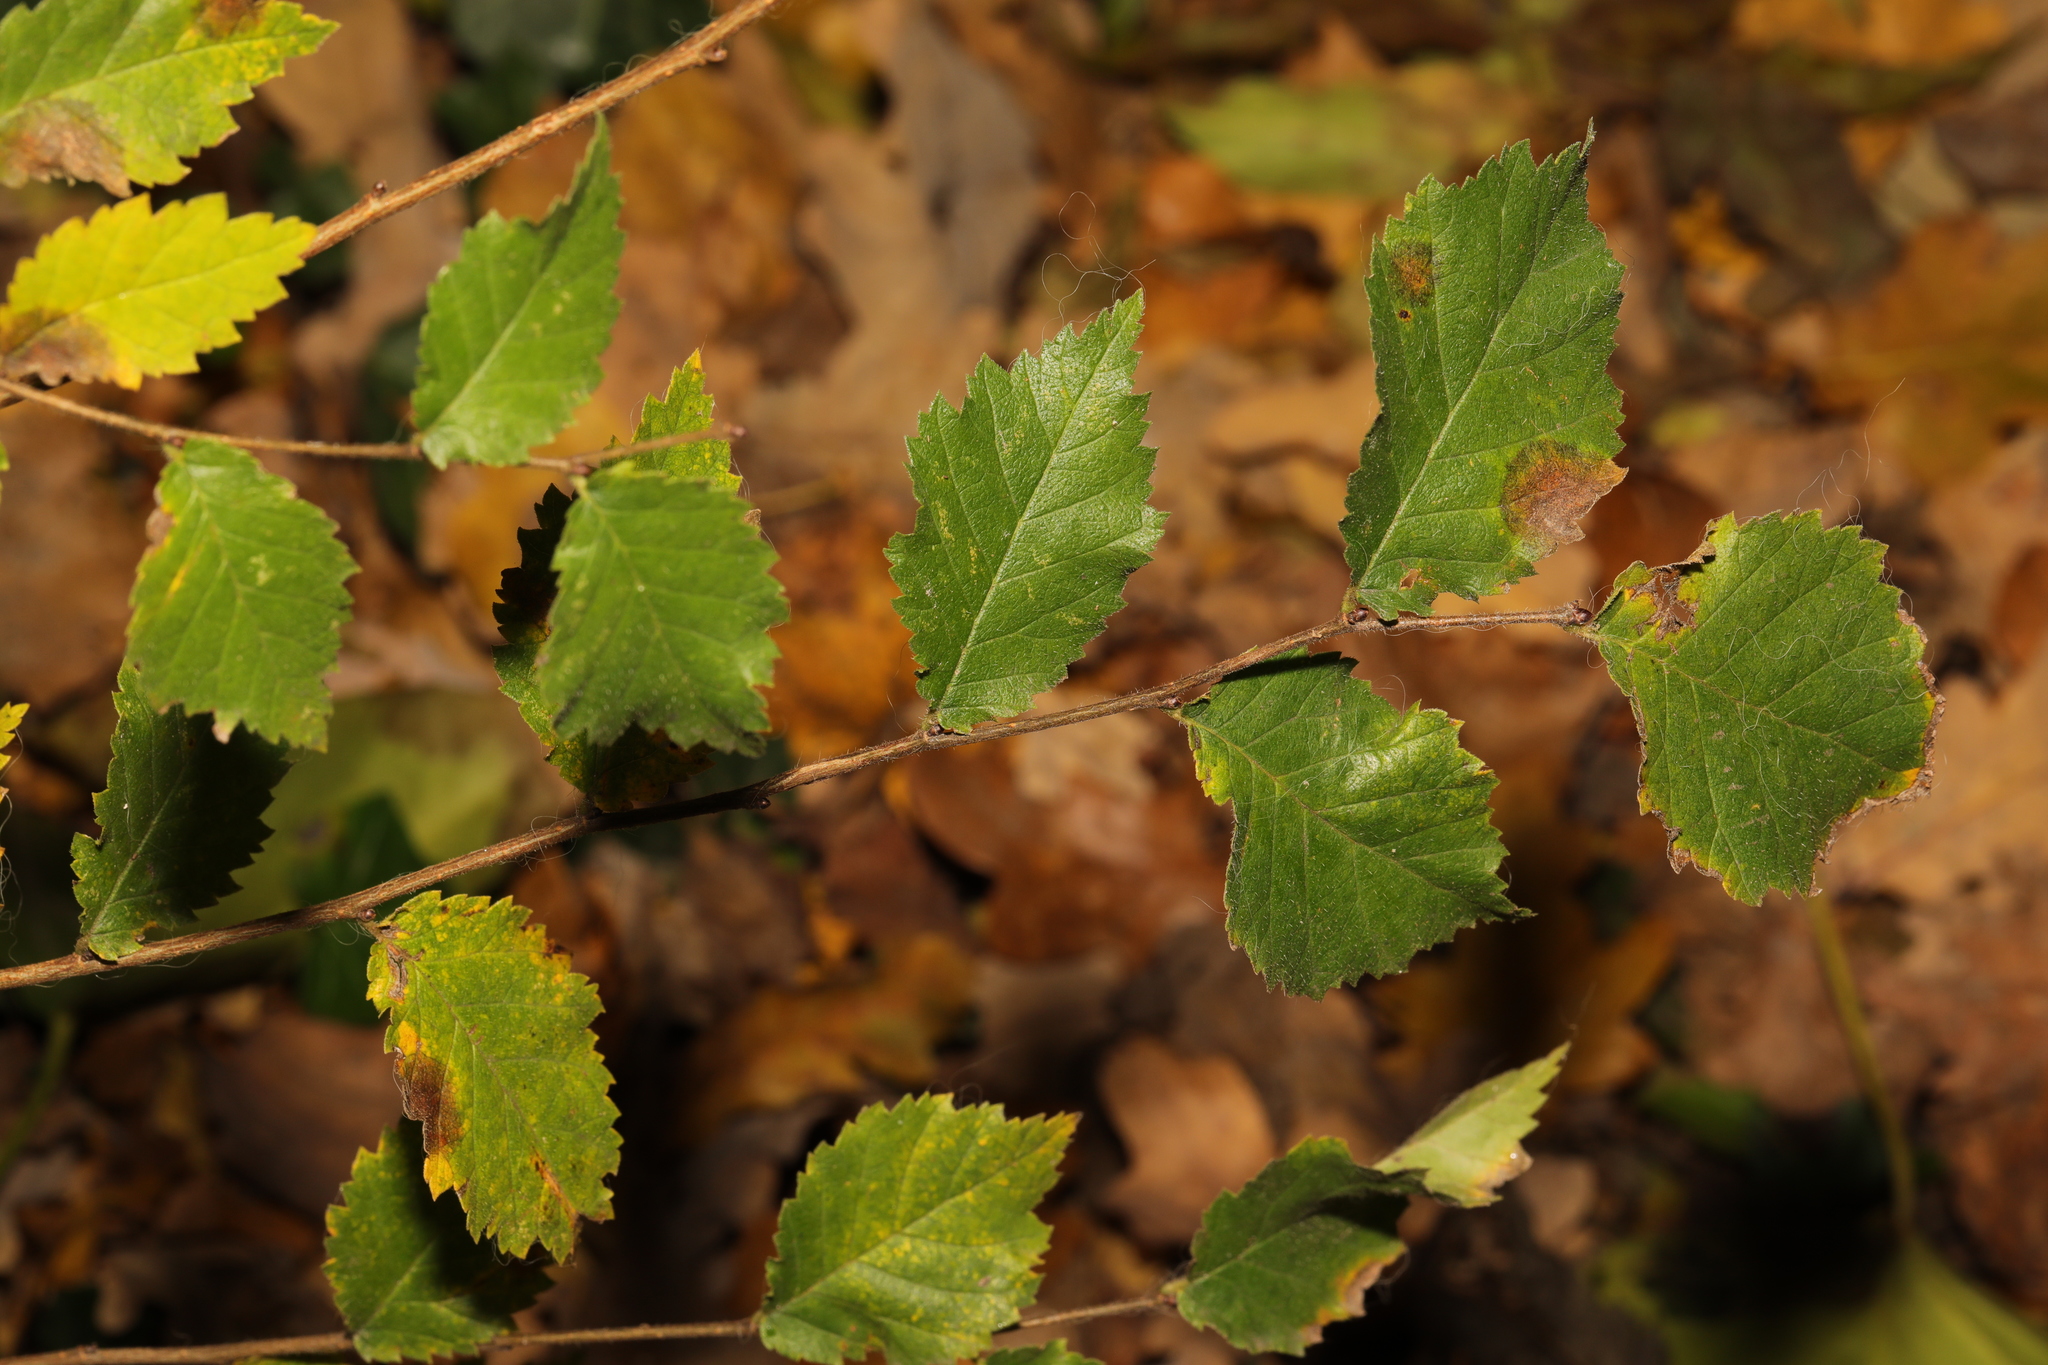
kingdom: Plantae
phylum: Tracheophyta
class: Magnoliopsida
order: Rosales
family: Ulmaceae
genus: Ulmus
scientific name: Ulmus minor
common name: Small-leaved elm
